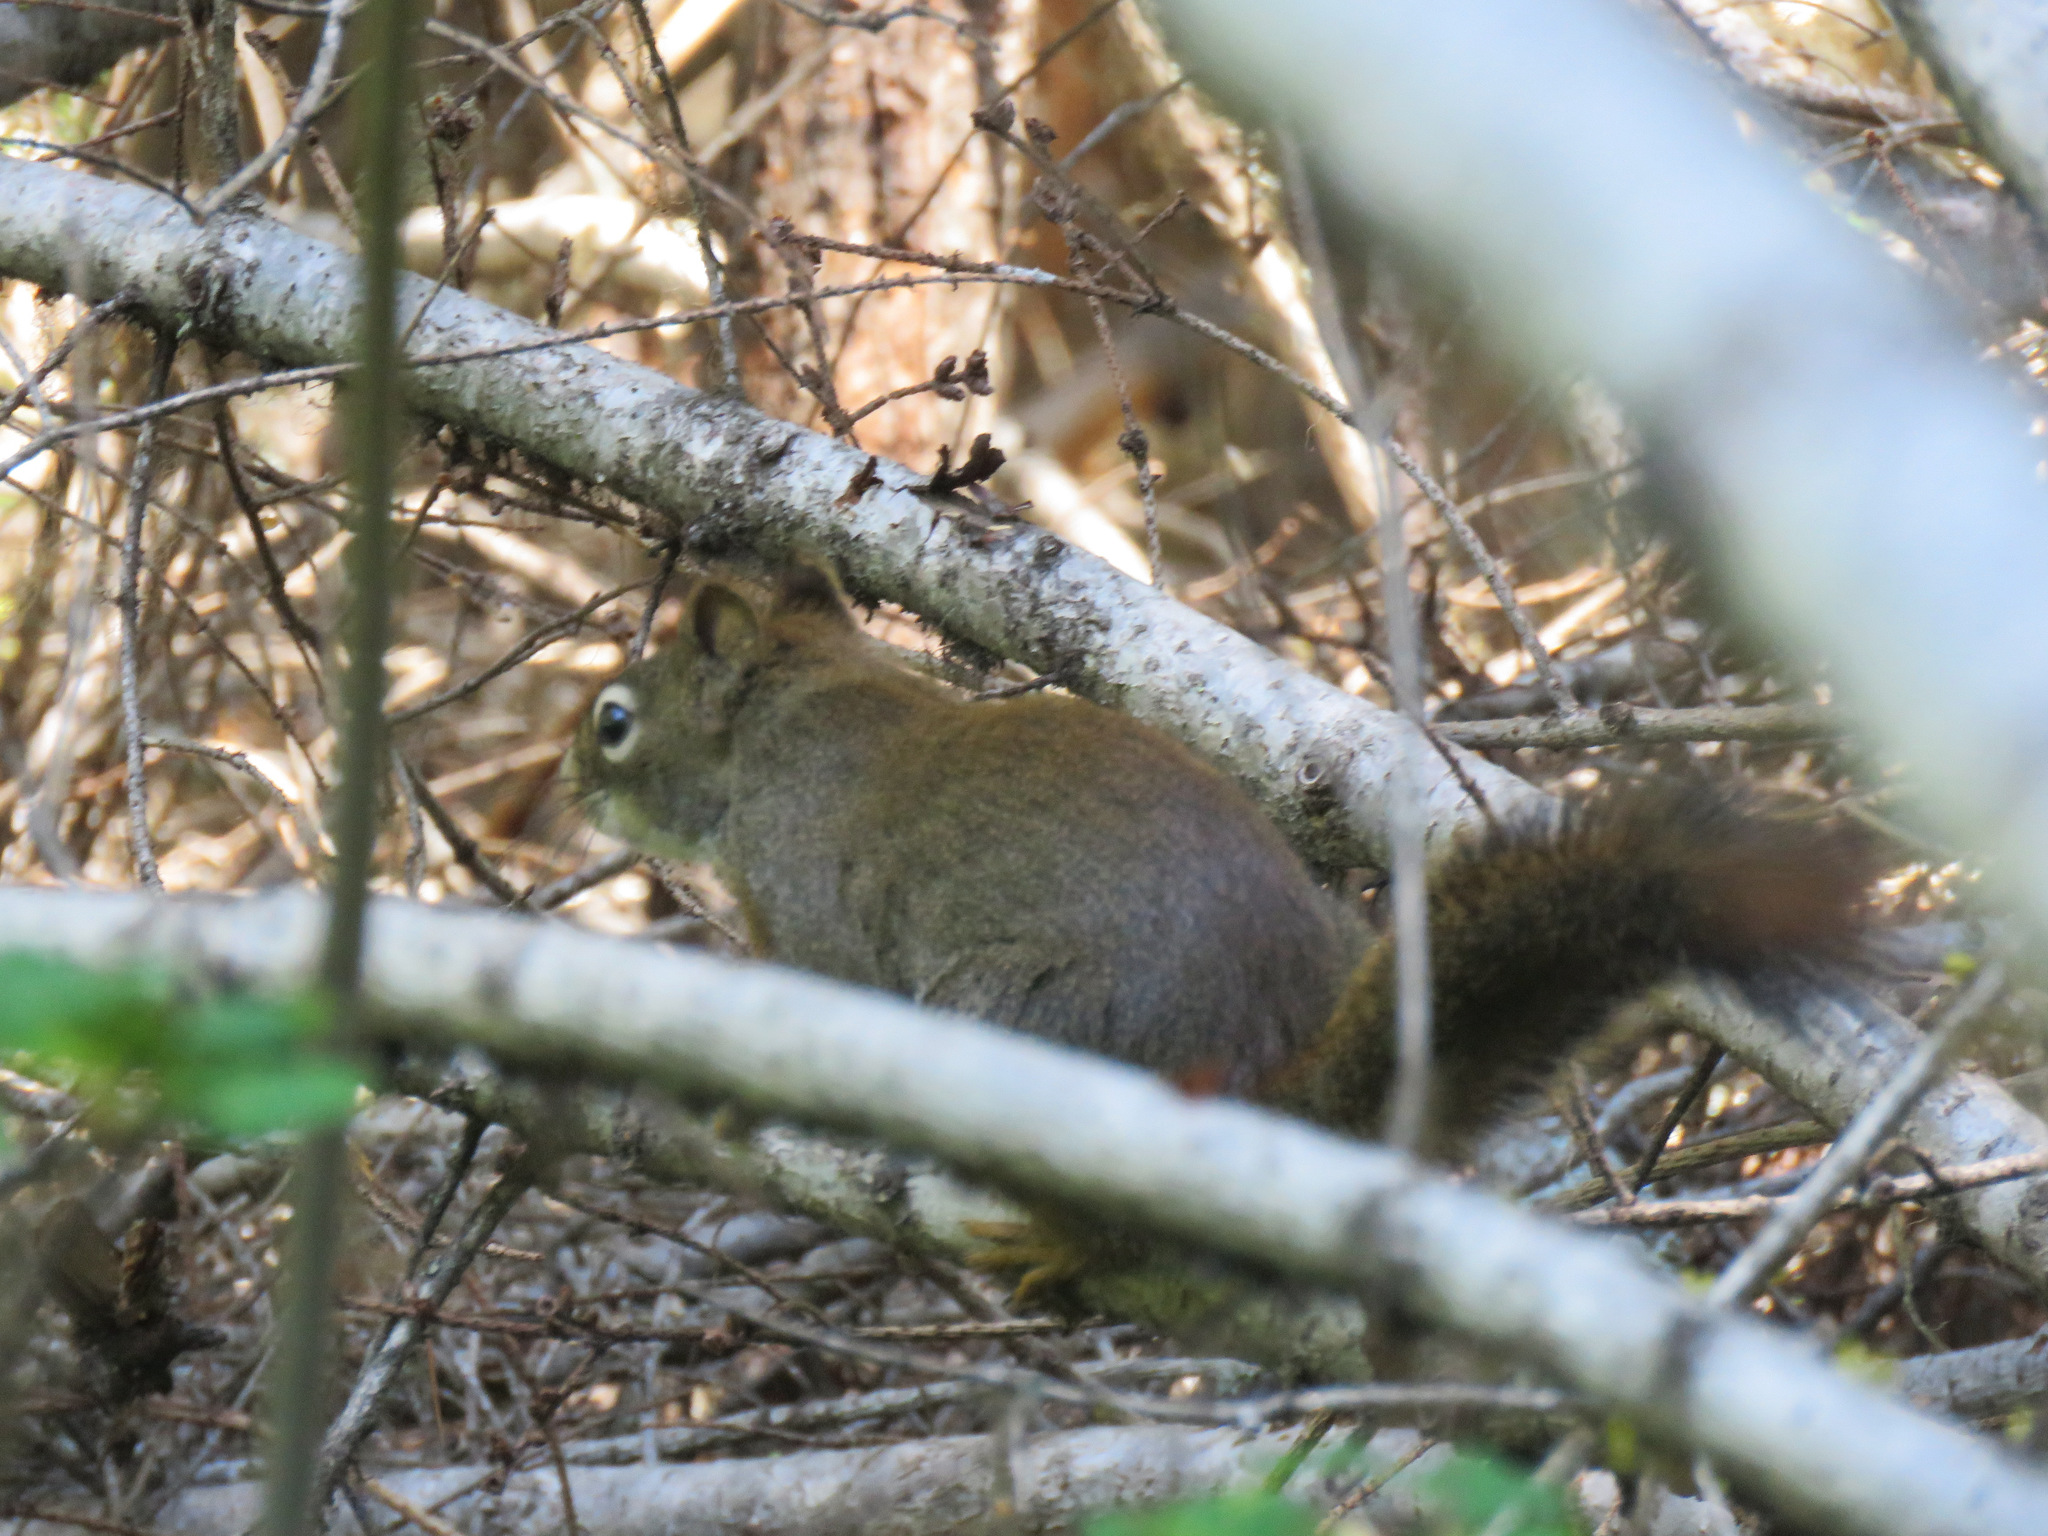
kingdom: Animalia
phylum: Chordata
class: Mammalia
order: Rodentia
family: Sciuridae
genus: Tamiasciurus
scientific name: Tamiasciurus hudsonicus
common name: Red squirrel
